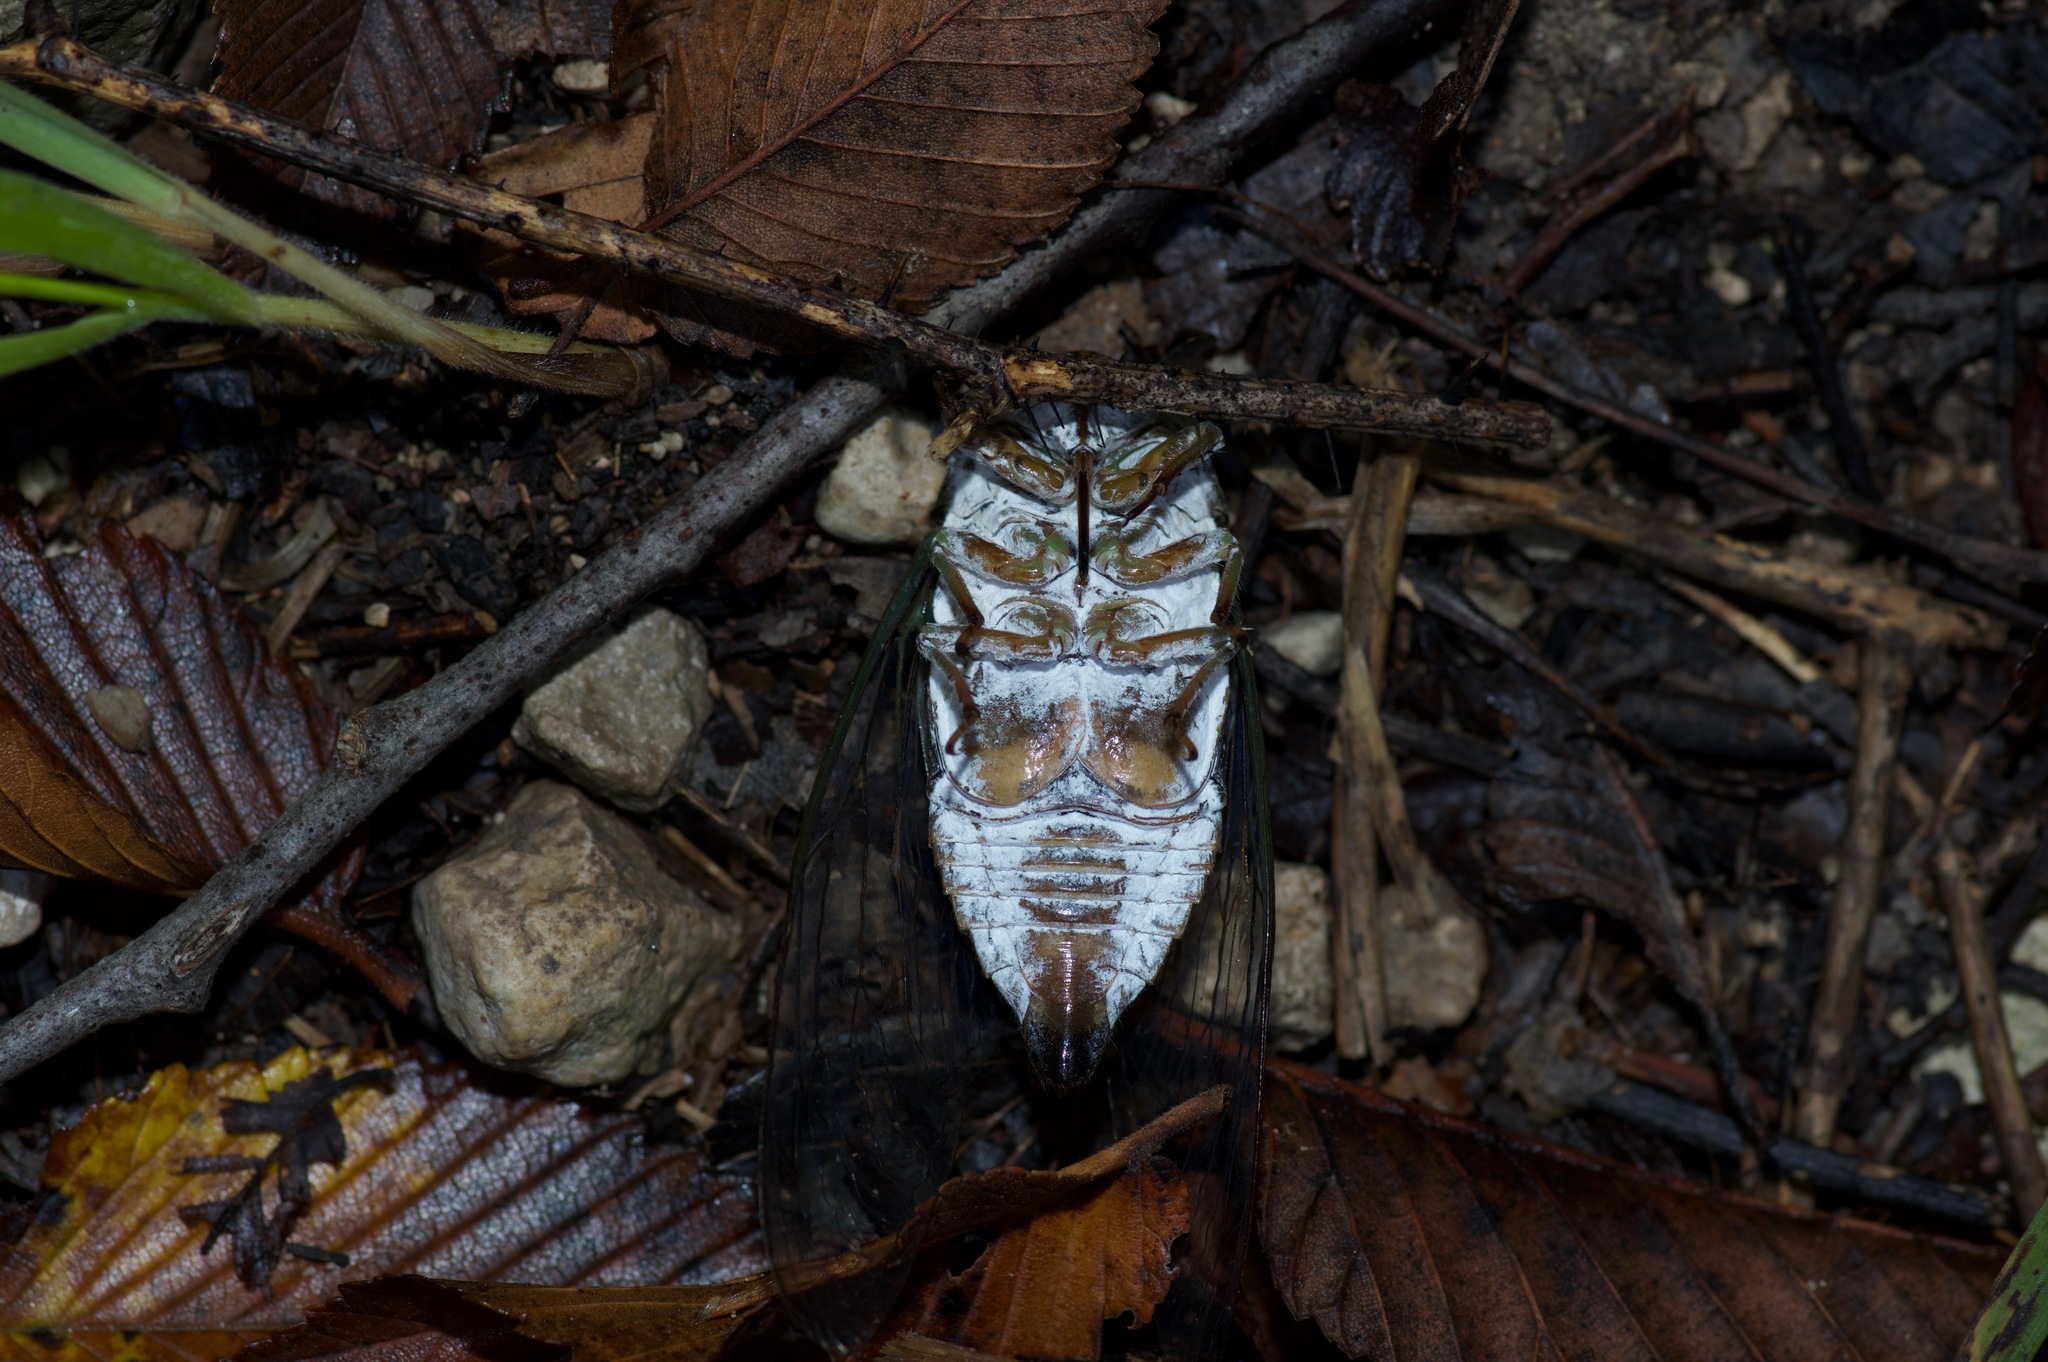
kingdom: Animalia
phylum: Arthropoda
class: Insecta
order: Hemiptera
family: Cicadidae
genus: Neotibicen
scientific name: Neotibicen pruinosus
